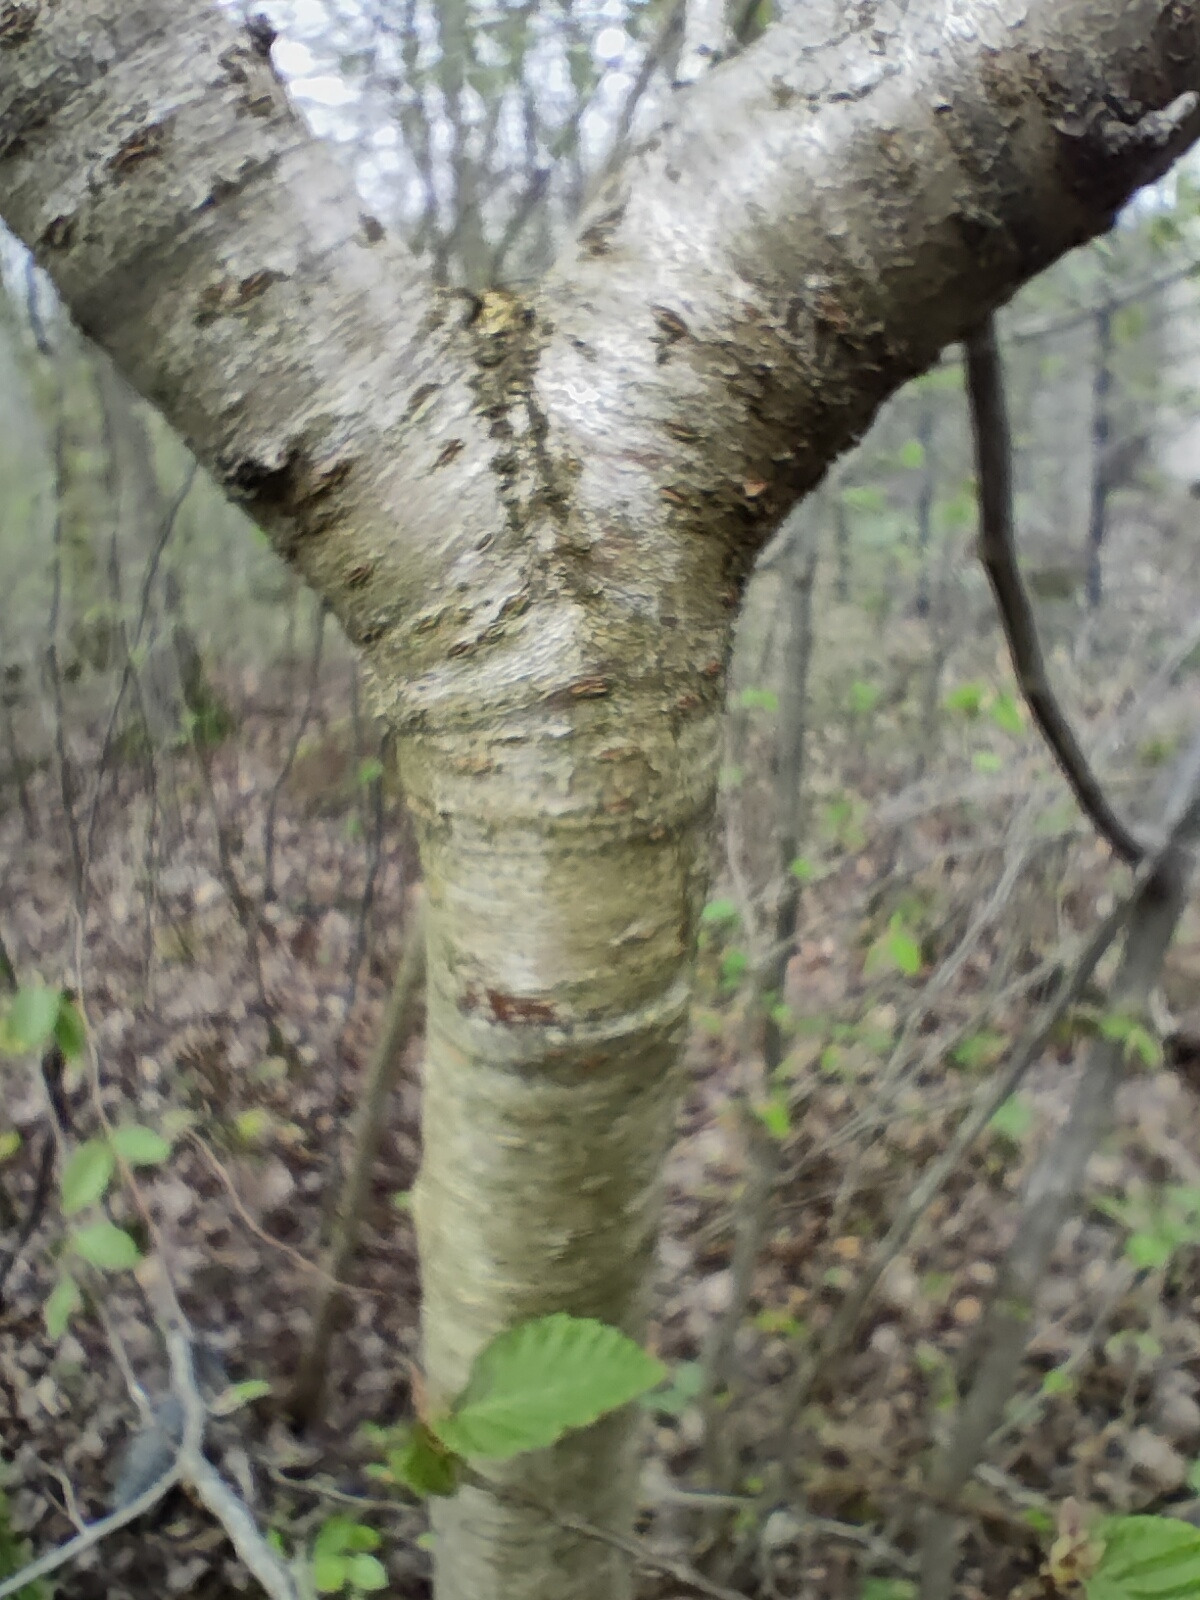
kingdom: Plantae
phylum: Tracheophyta
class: Magnoliopsida
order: Rosales
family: Rosaceae
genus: Prunus
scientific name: Prunus avium
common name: Sweet cherry
